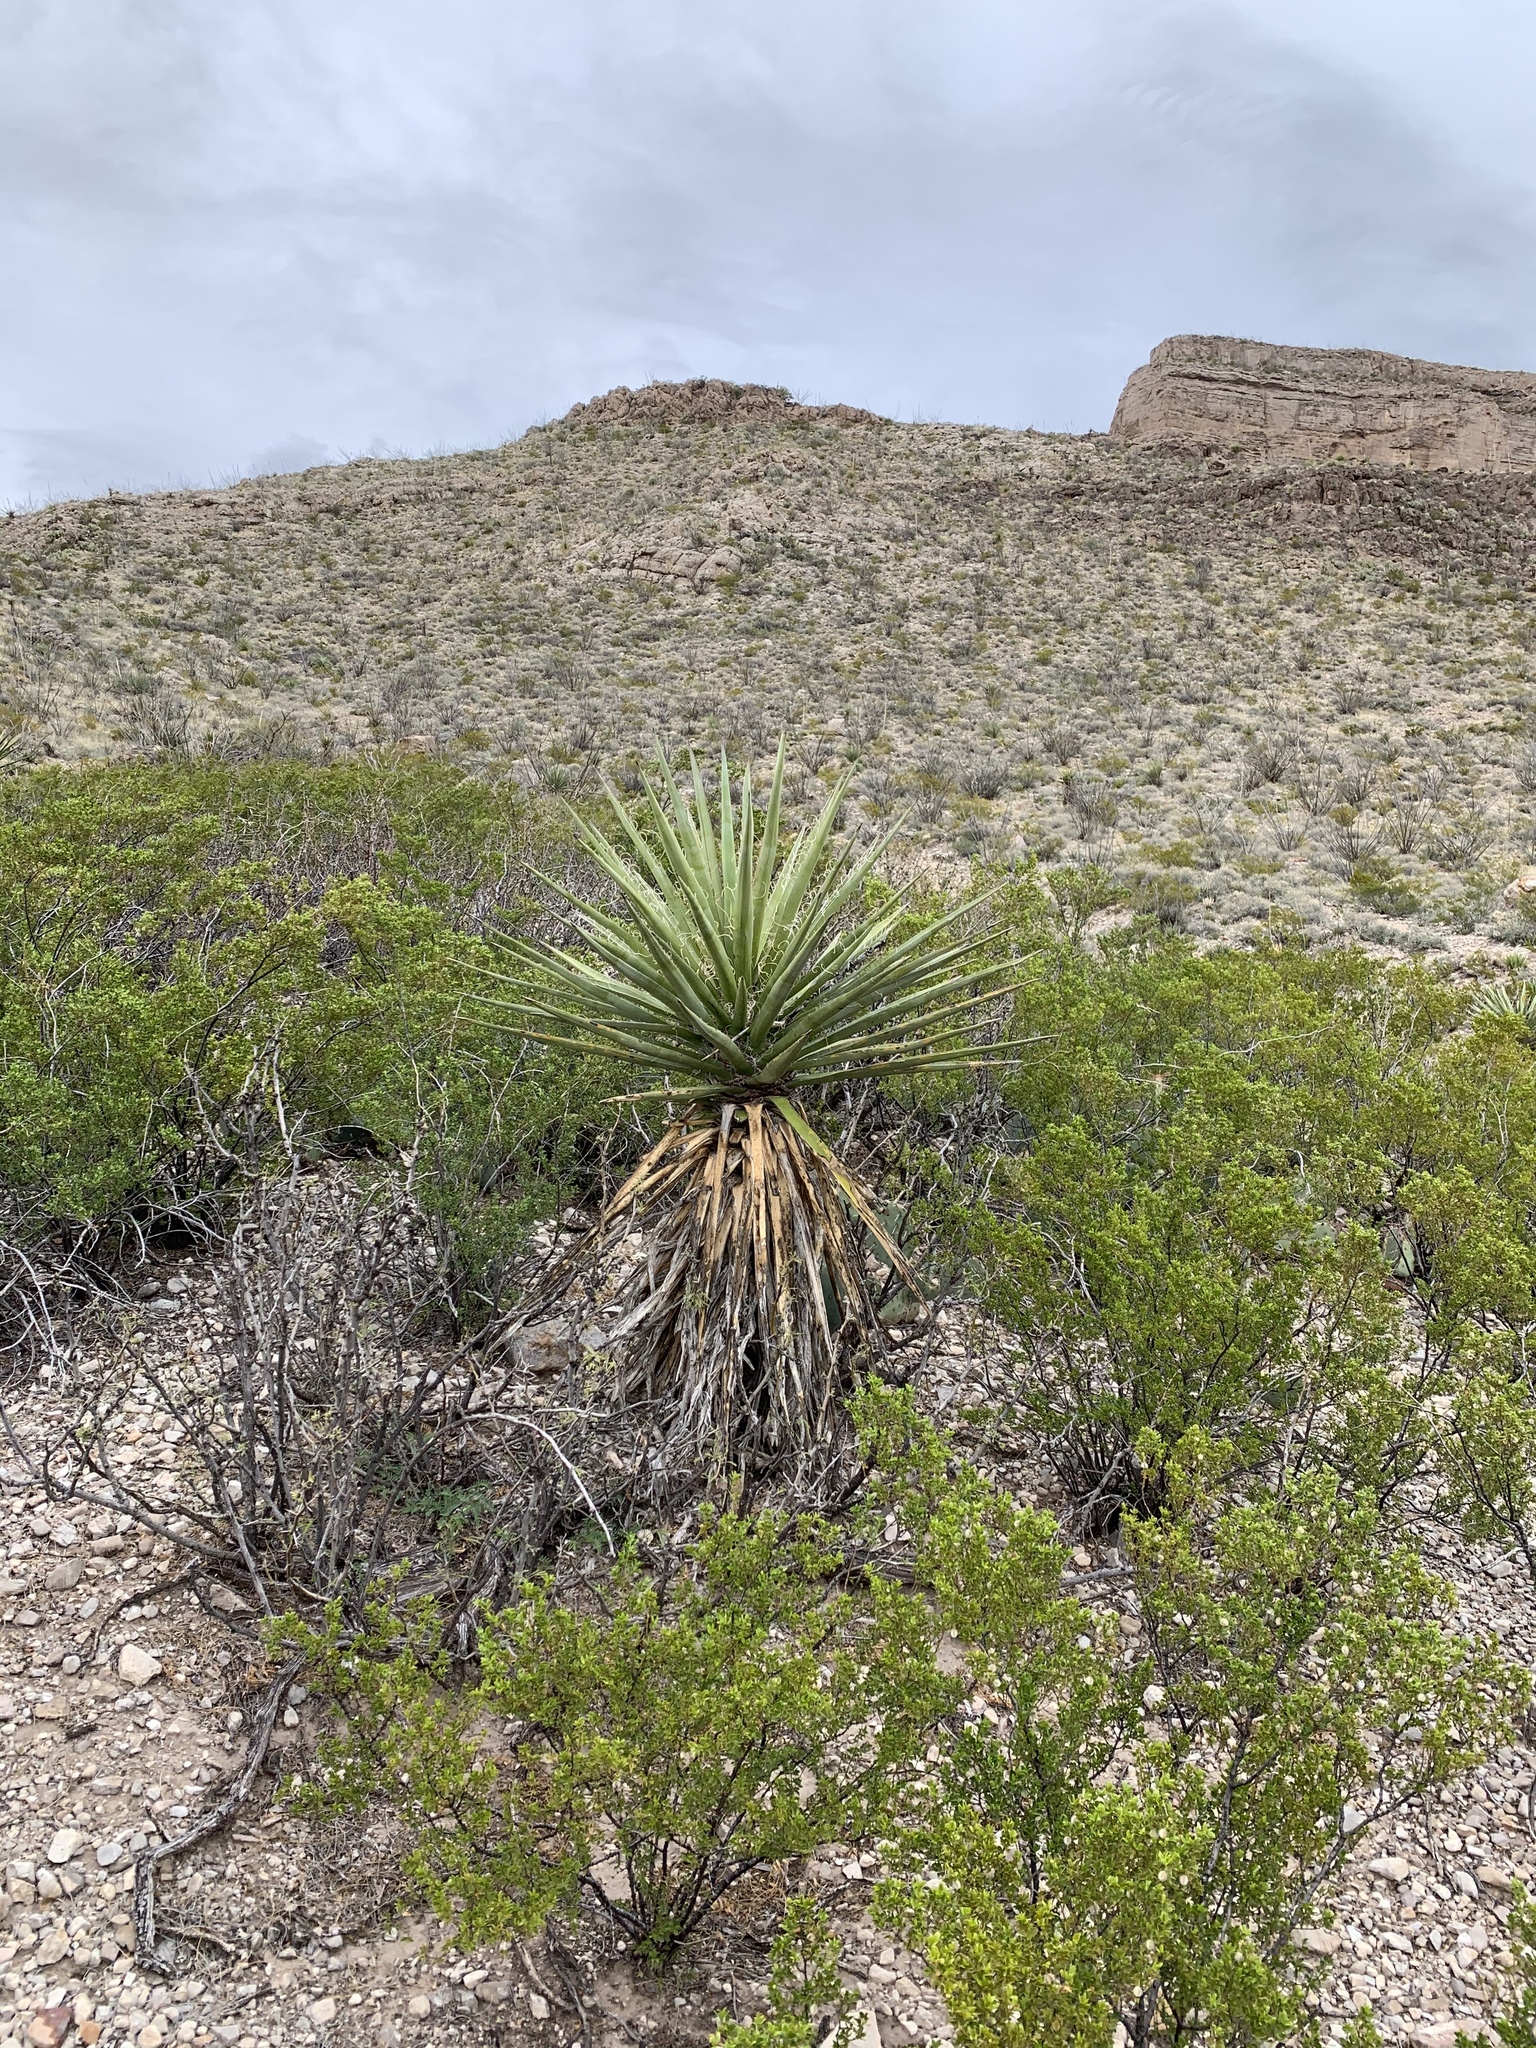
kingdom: Plantae
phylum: Tracheophyta
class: Liliopsida
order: Asparagales
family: Asparagaceae
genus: Yucca
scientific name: Yucca treculiana
